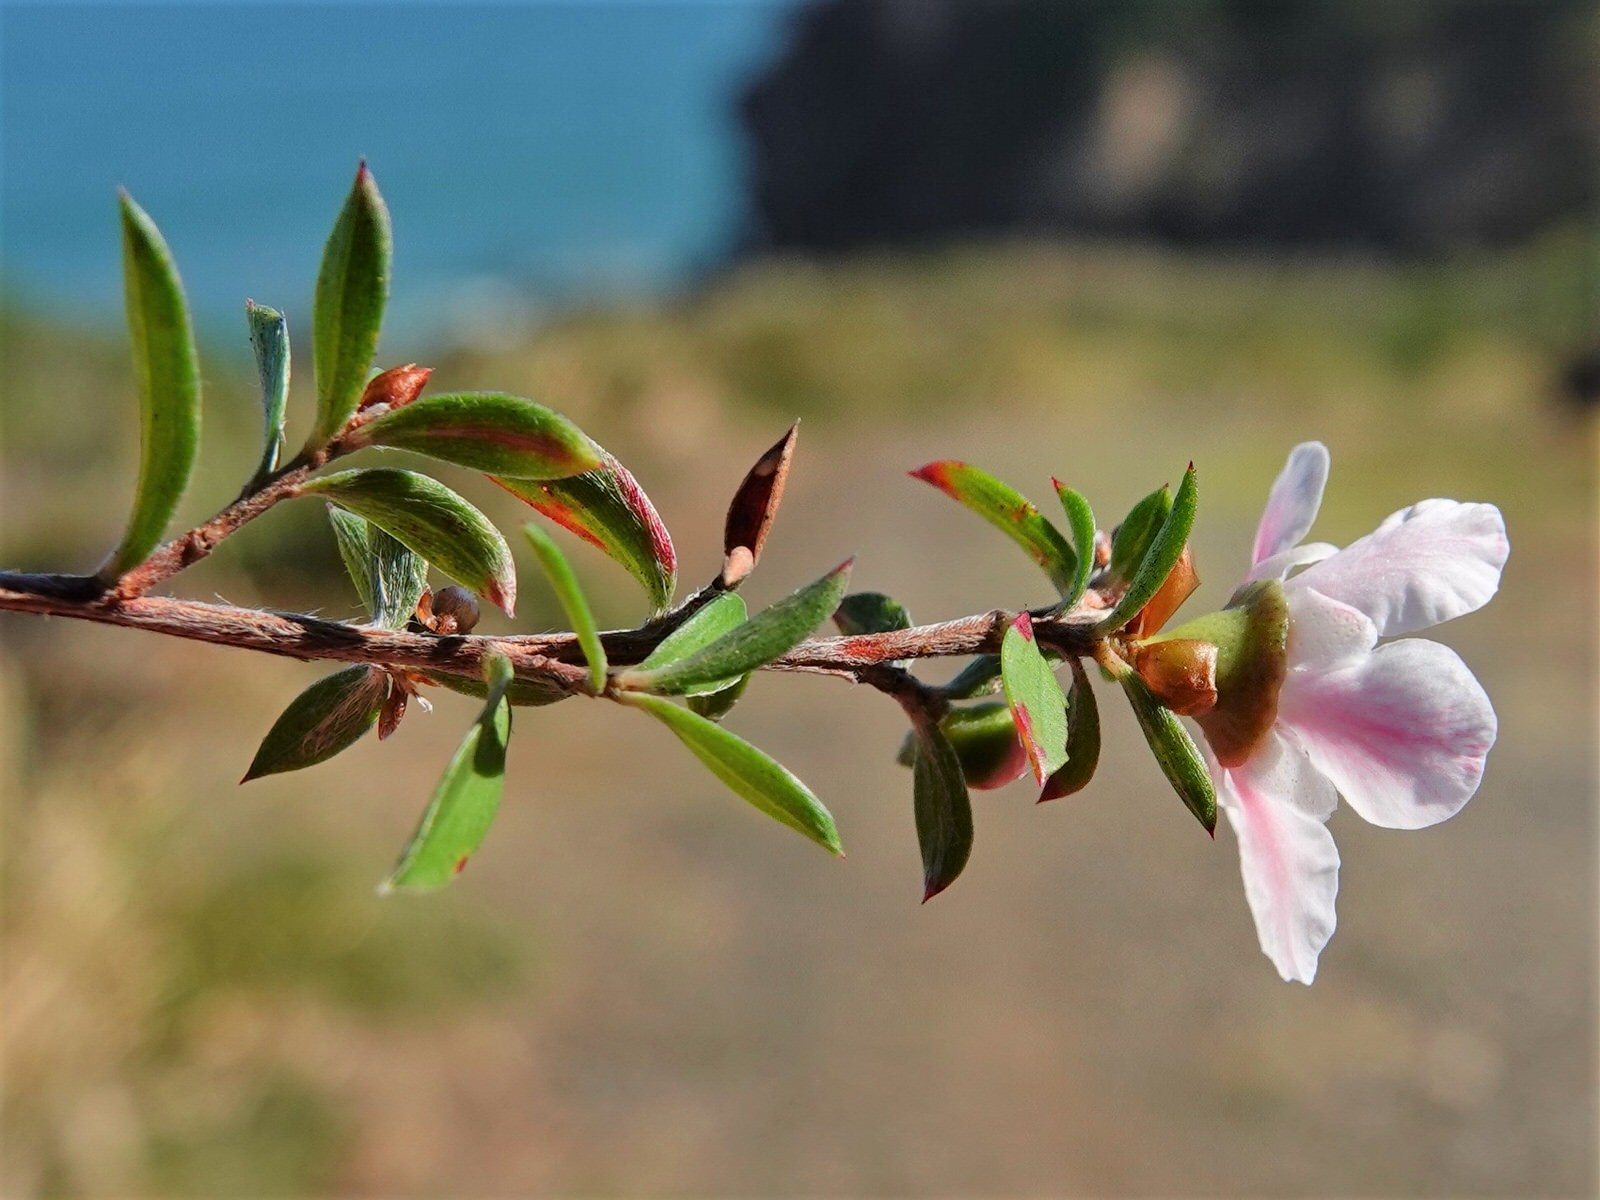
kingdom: Plantae
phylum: Tracheophyta
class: Magnoliopsida
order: Myrtales
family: Myrtaceae
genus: Leptospermum
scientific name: Leptospermum scoparium
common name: Broom tea-tree
